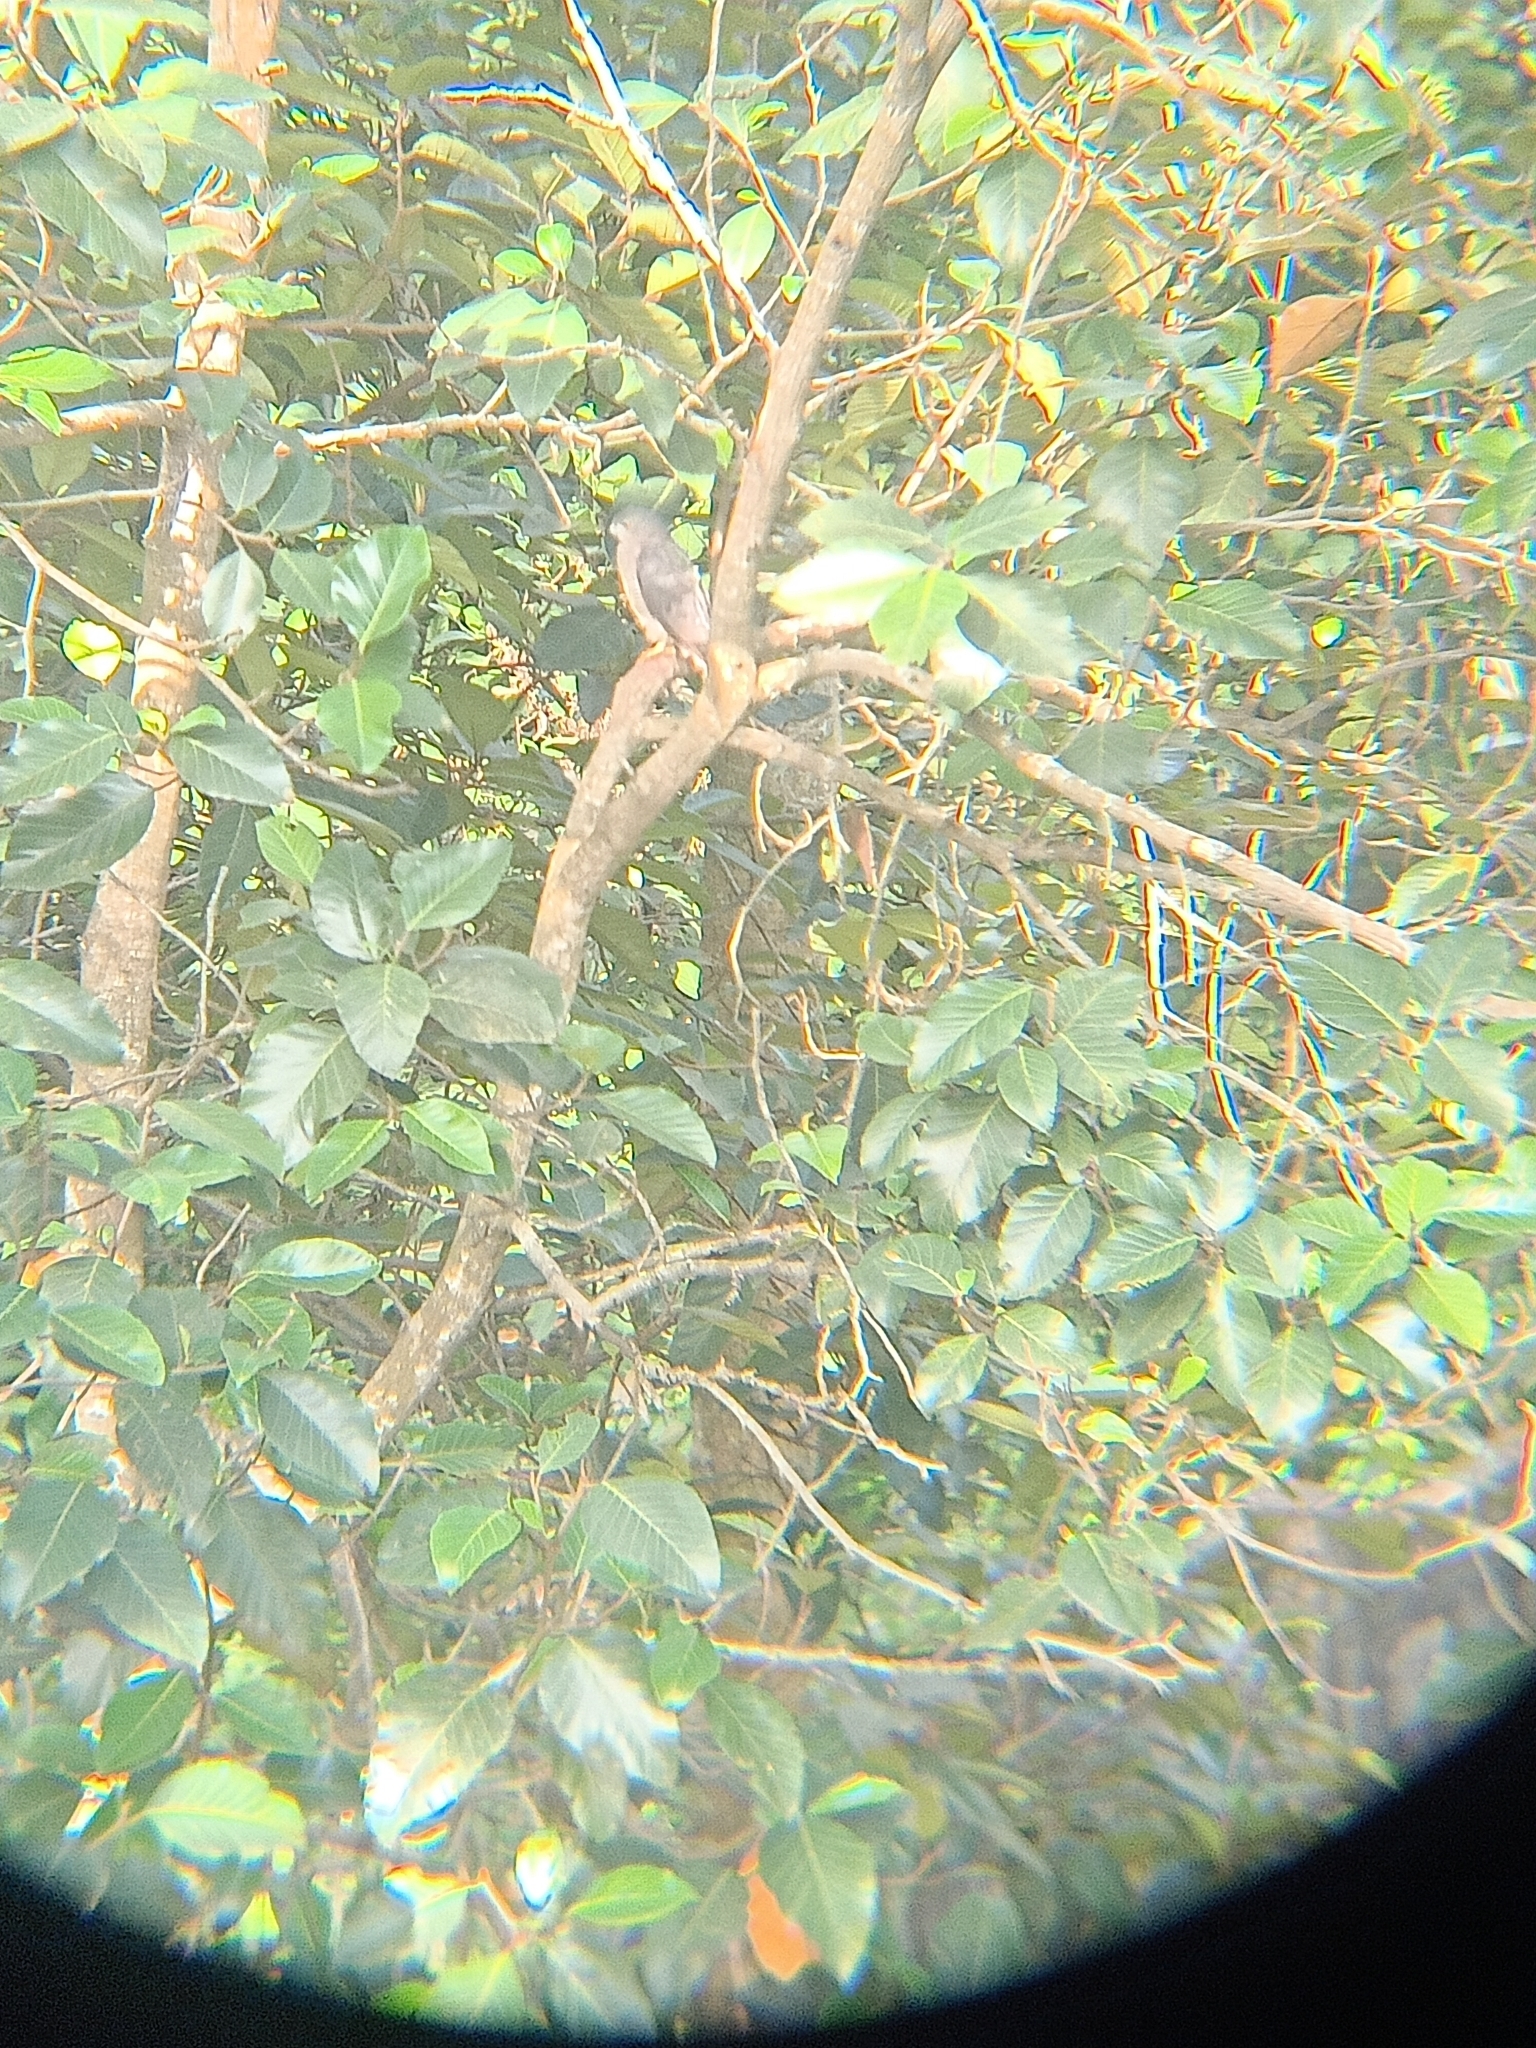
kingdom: Animalia
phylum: Chordata
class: Aves
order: Accipitriformes
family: Accipitridae
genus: Accipiter
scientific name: Accipiter badius
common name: Shikra
